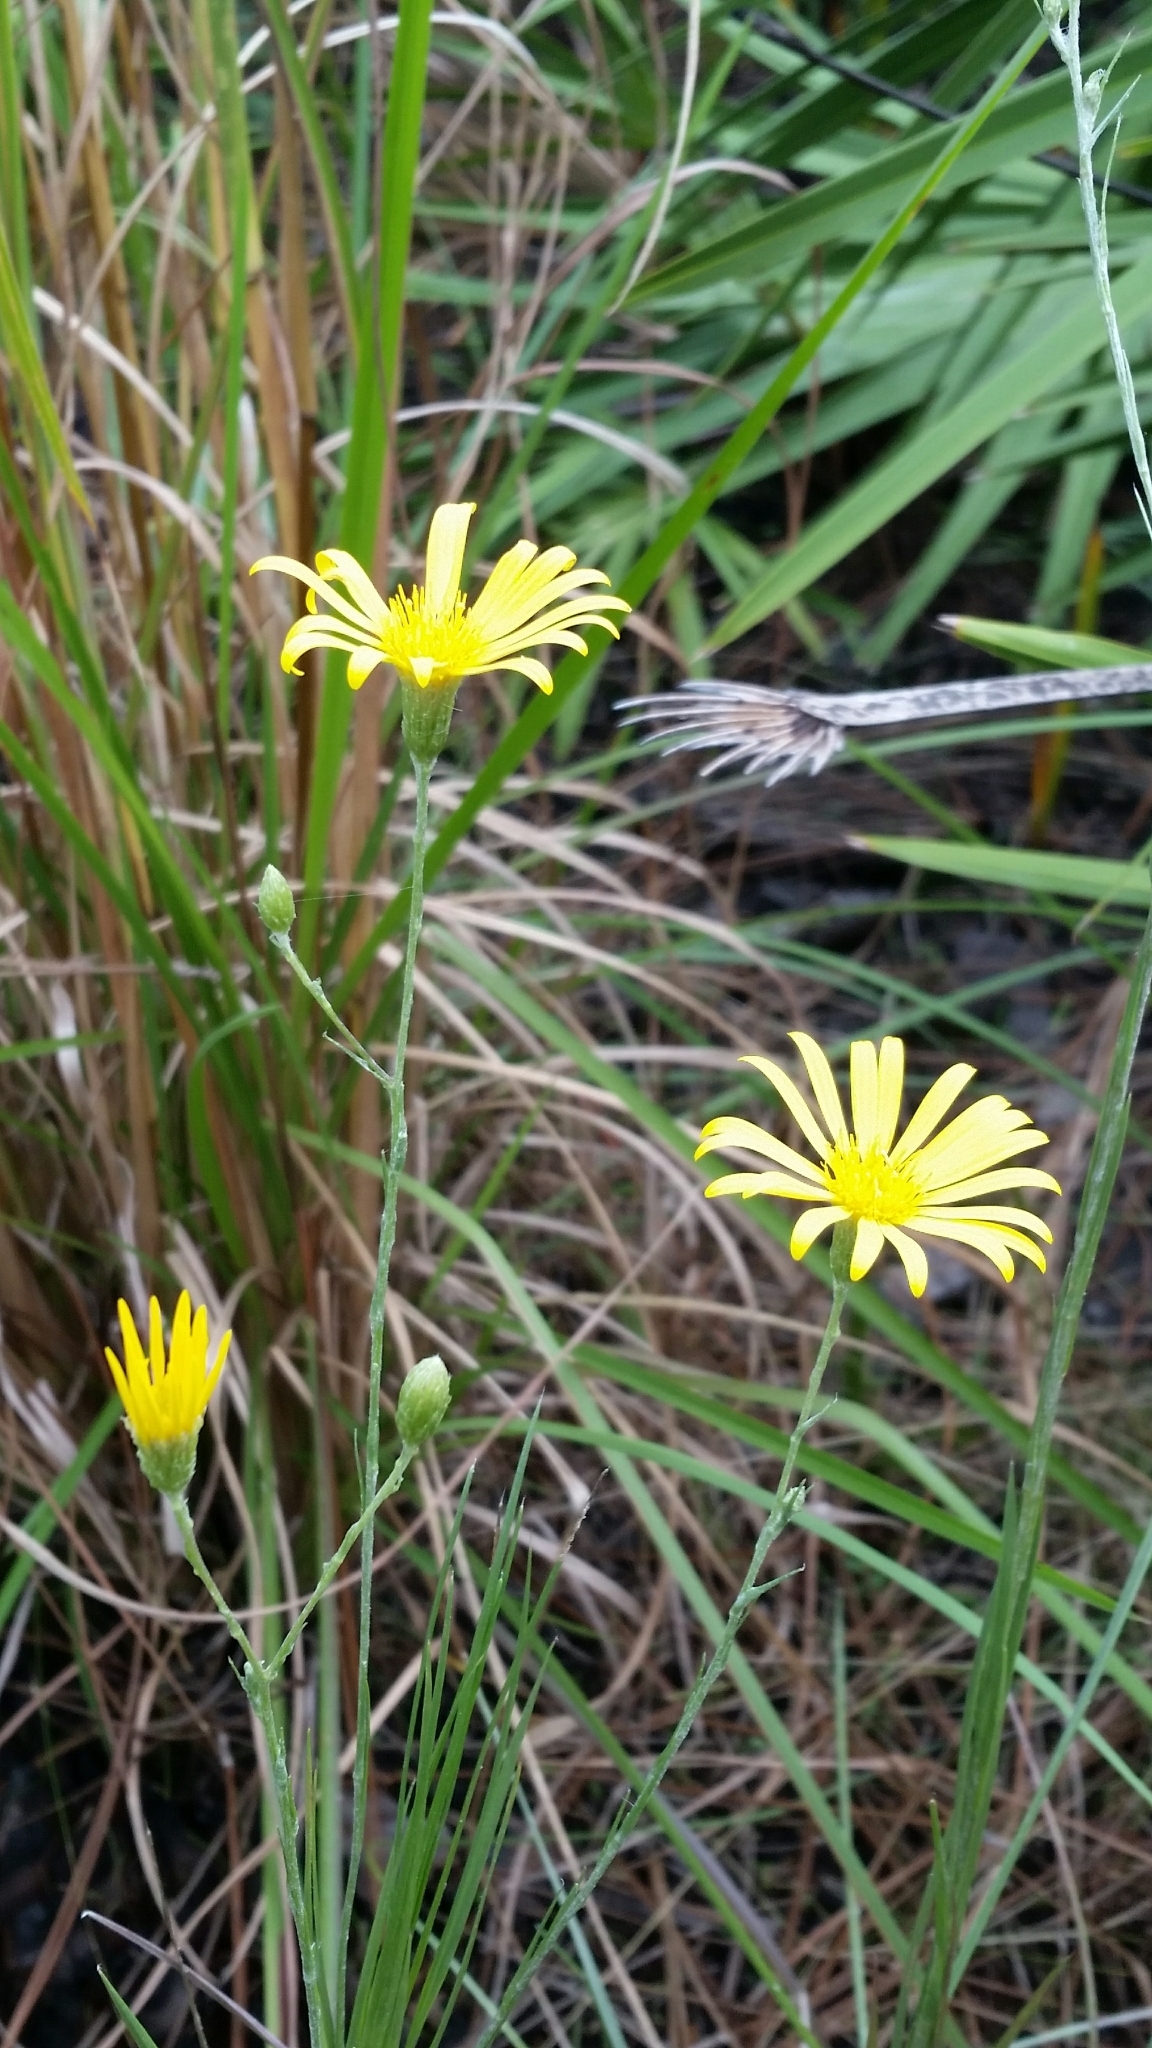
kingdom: Plantae
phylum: Tracheophyta
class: Magnoliopsida
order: Asterales
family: Asteraceae
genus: Pityopsis
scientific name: Pityopsis tracyi
